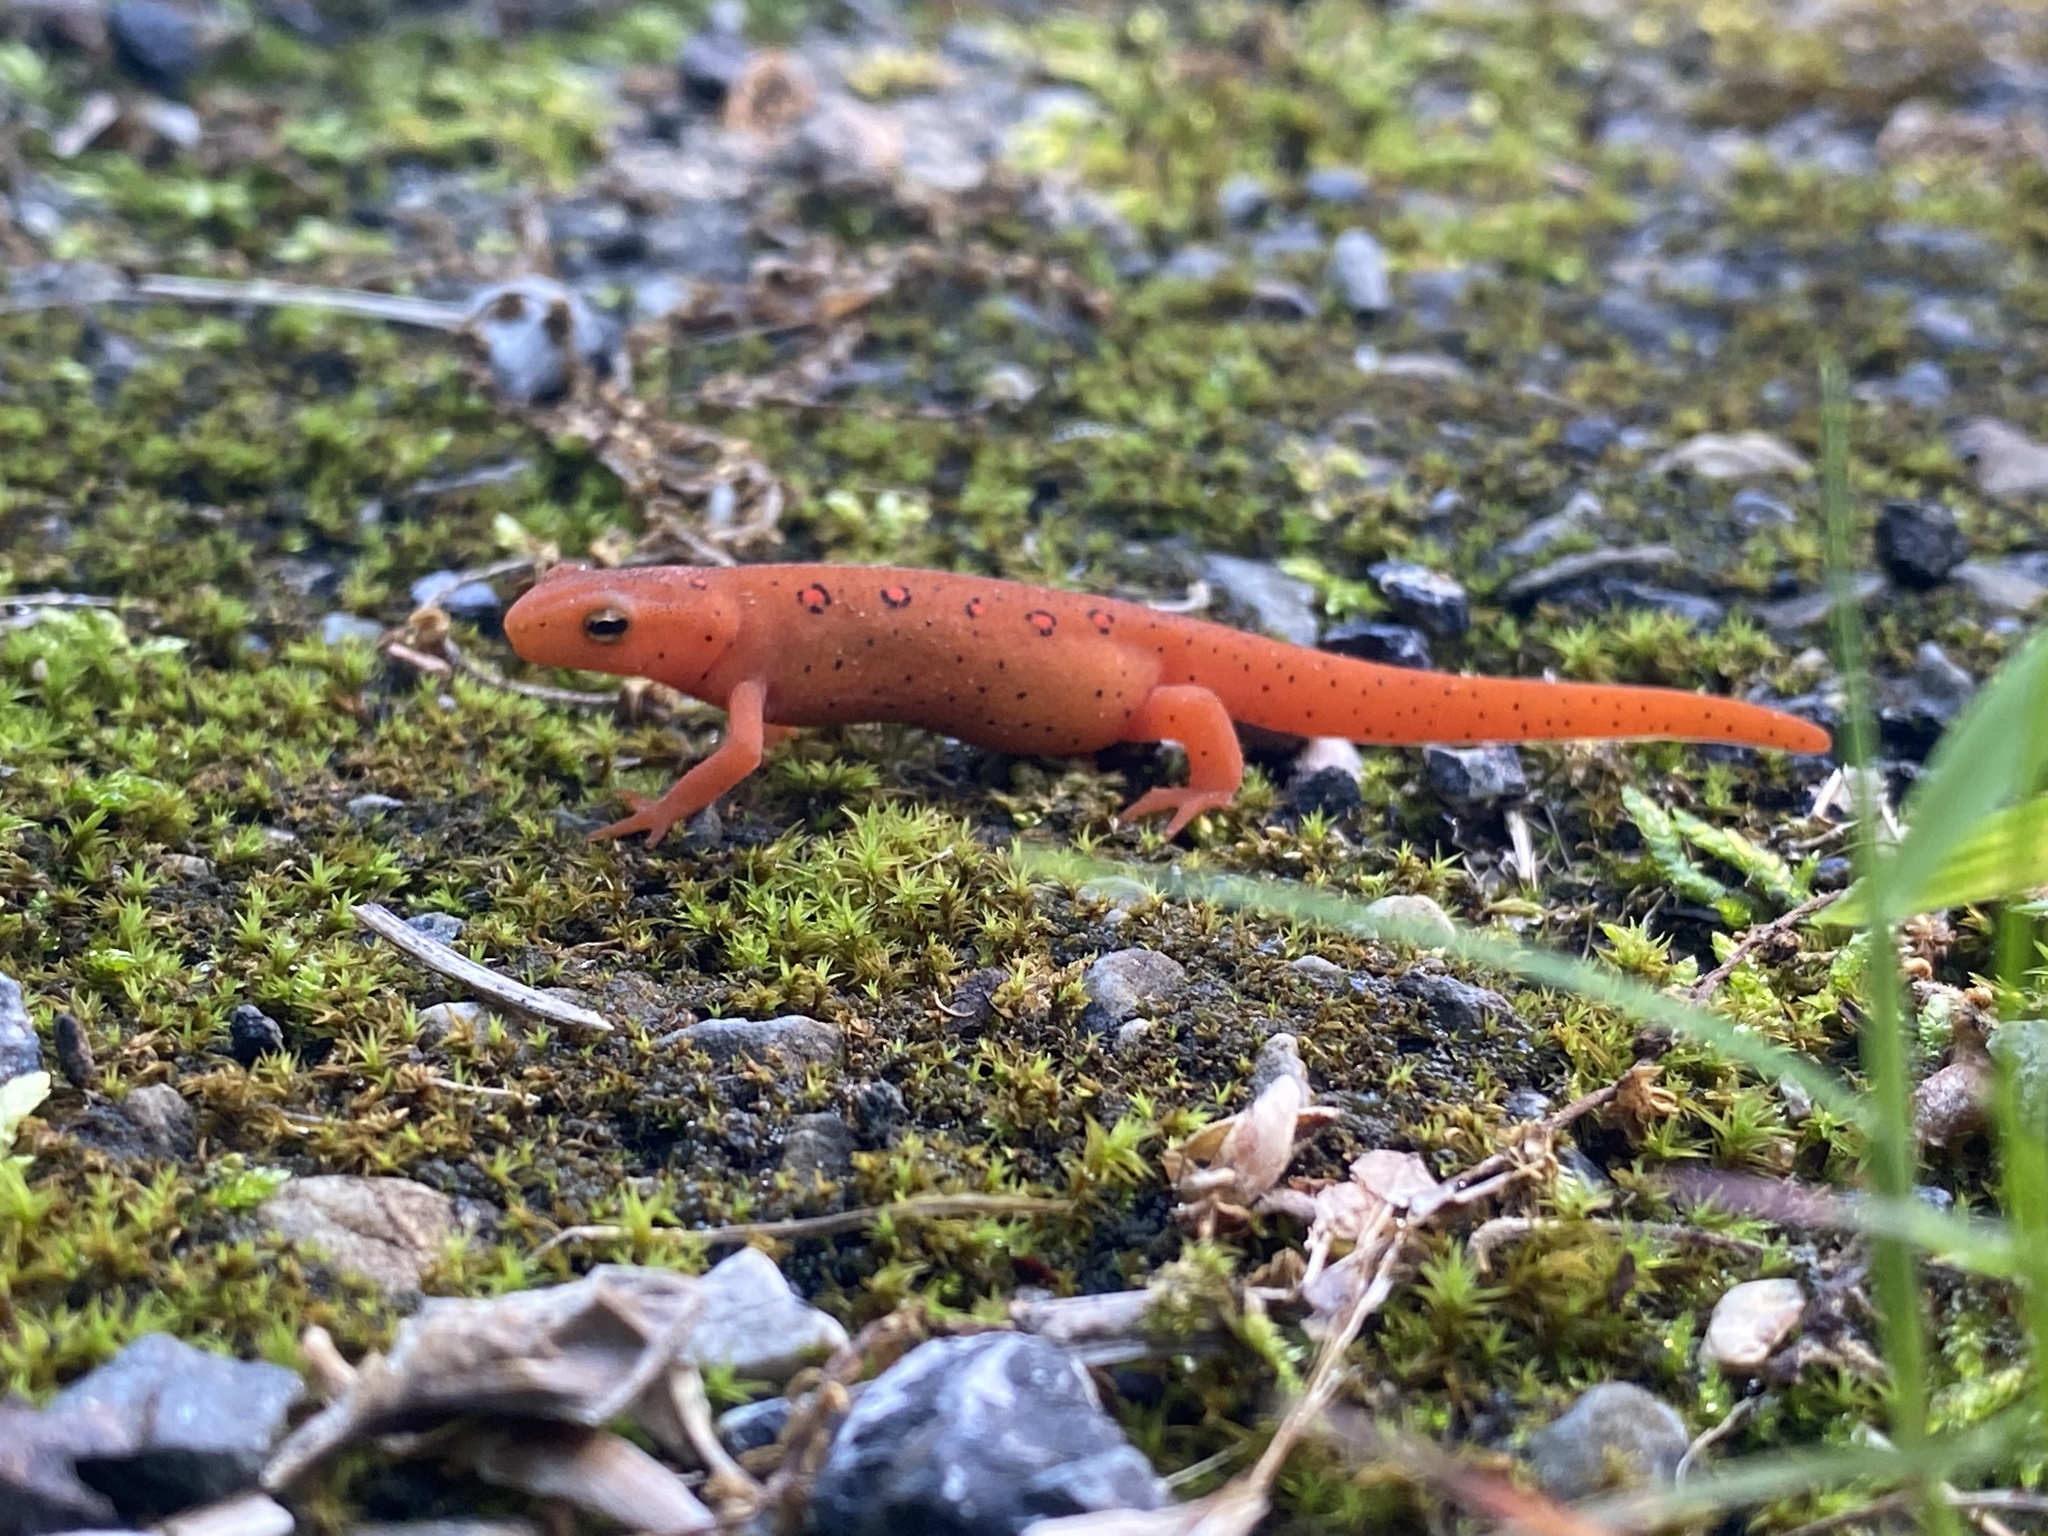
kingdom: Animalia
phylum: Chordata
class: Amphibia
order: Caudata
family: Salamandridae
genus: Notophthalmus
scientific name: Notophthalmus viridescens
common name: Eastern newt
